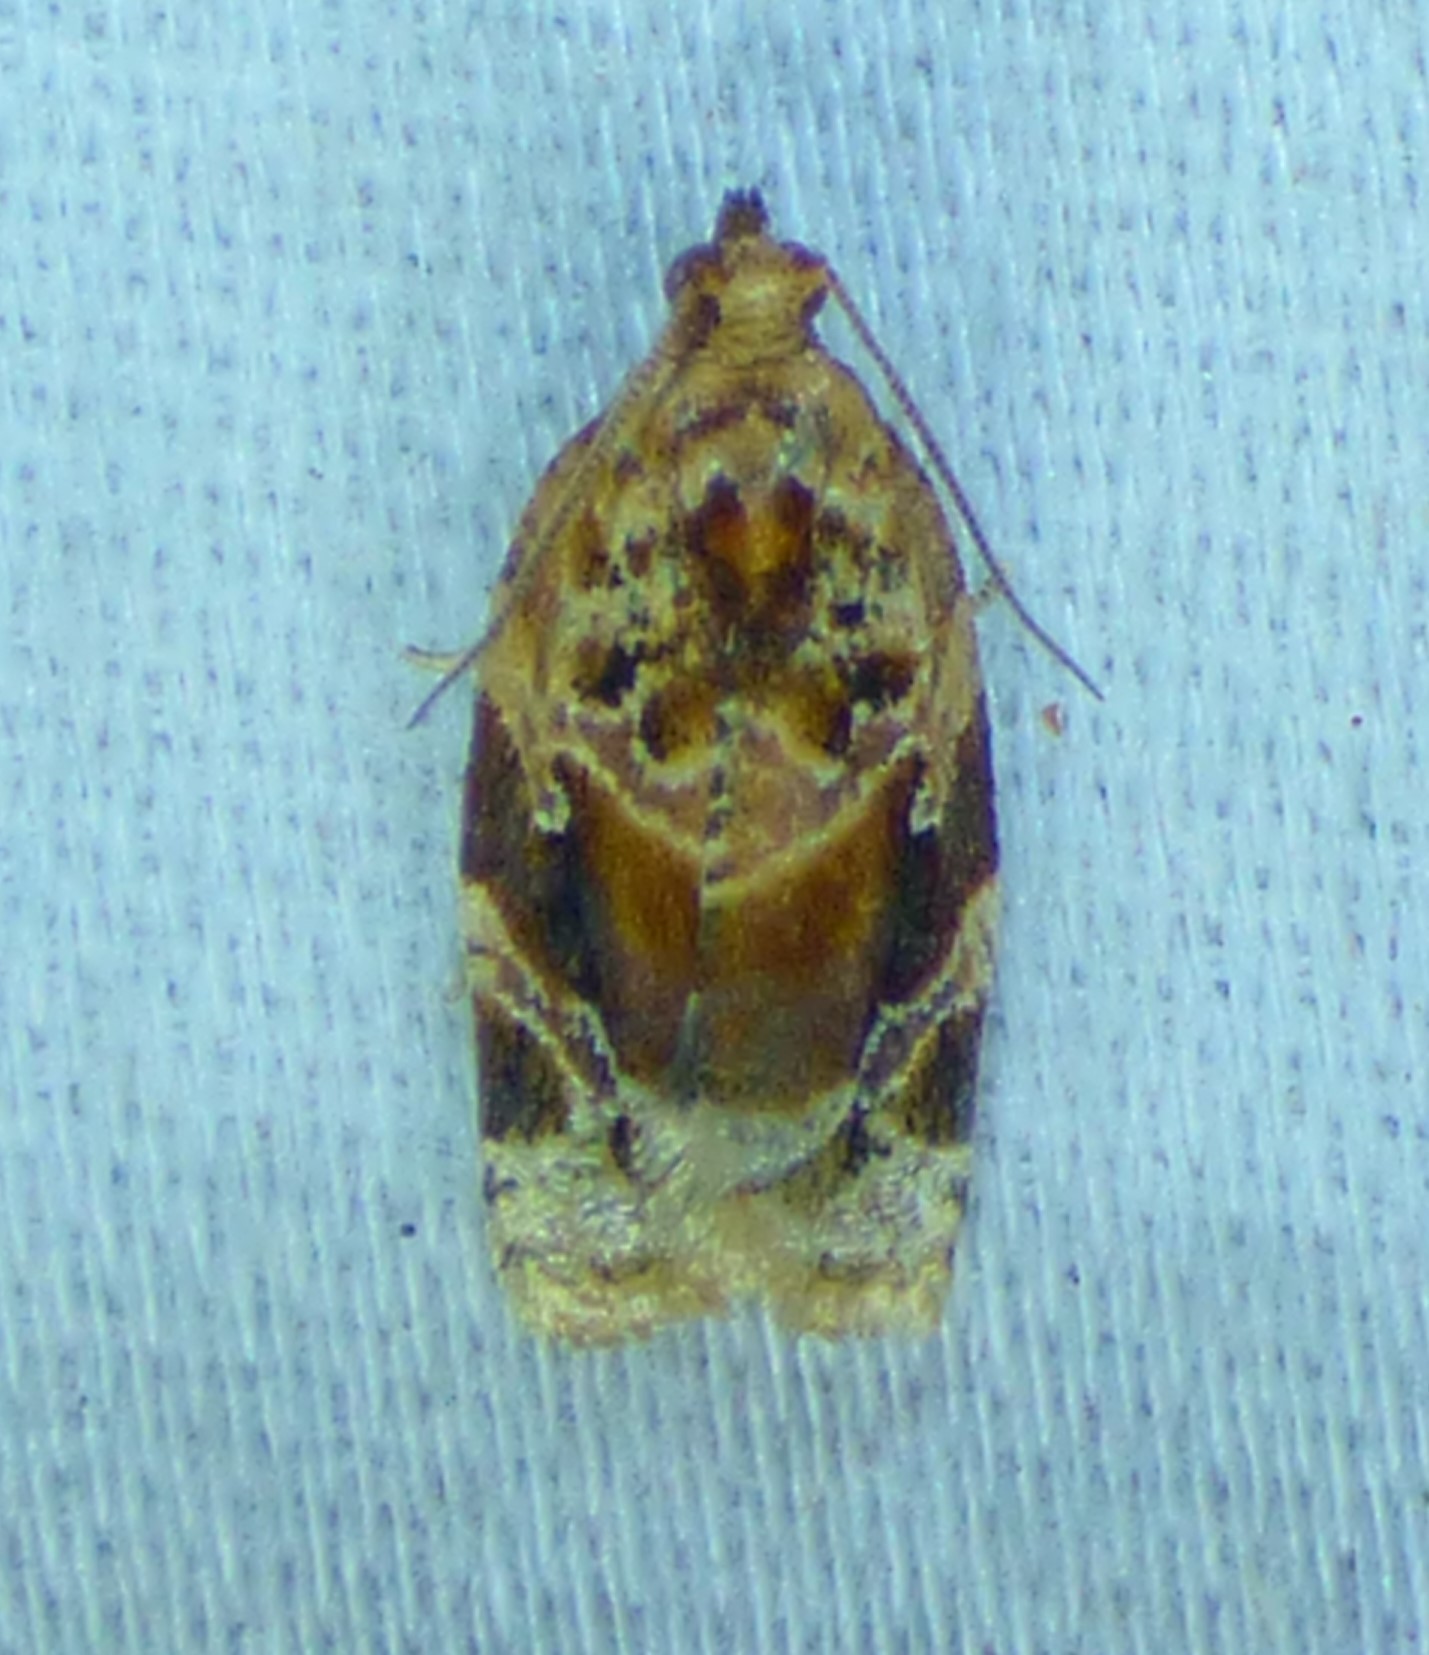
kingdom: Animalia
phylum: Arthropoda
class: Insecta
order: Lepidoptera
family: Tortricidae
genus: Argyrotaenia
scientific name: Argyrotaenia velutinana
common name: Red-banded leafroller moth
